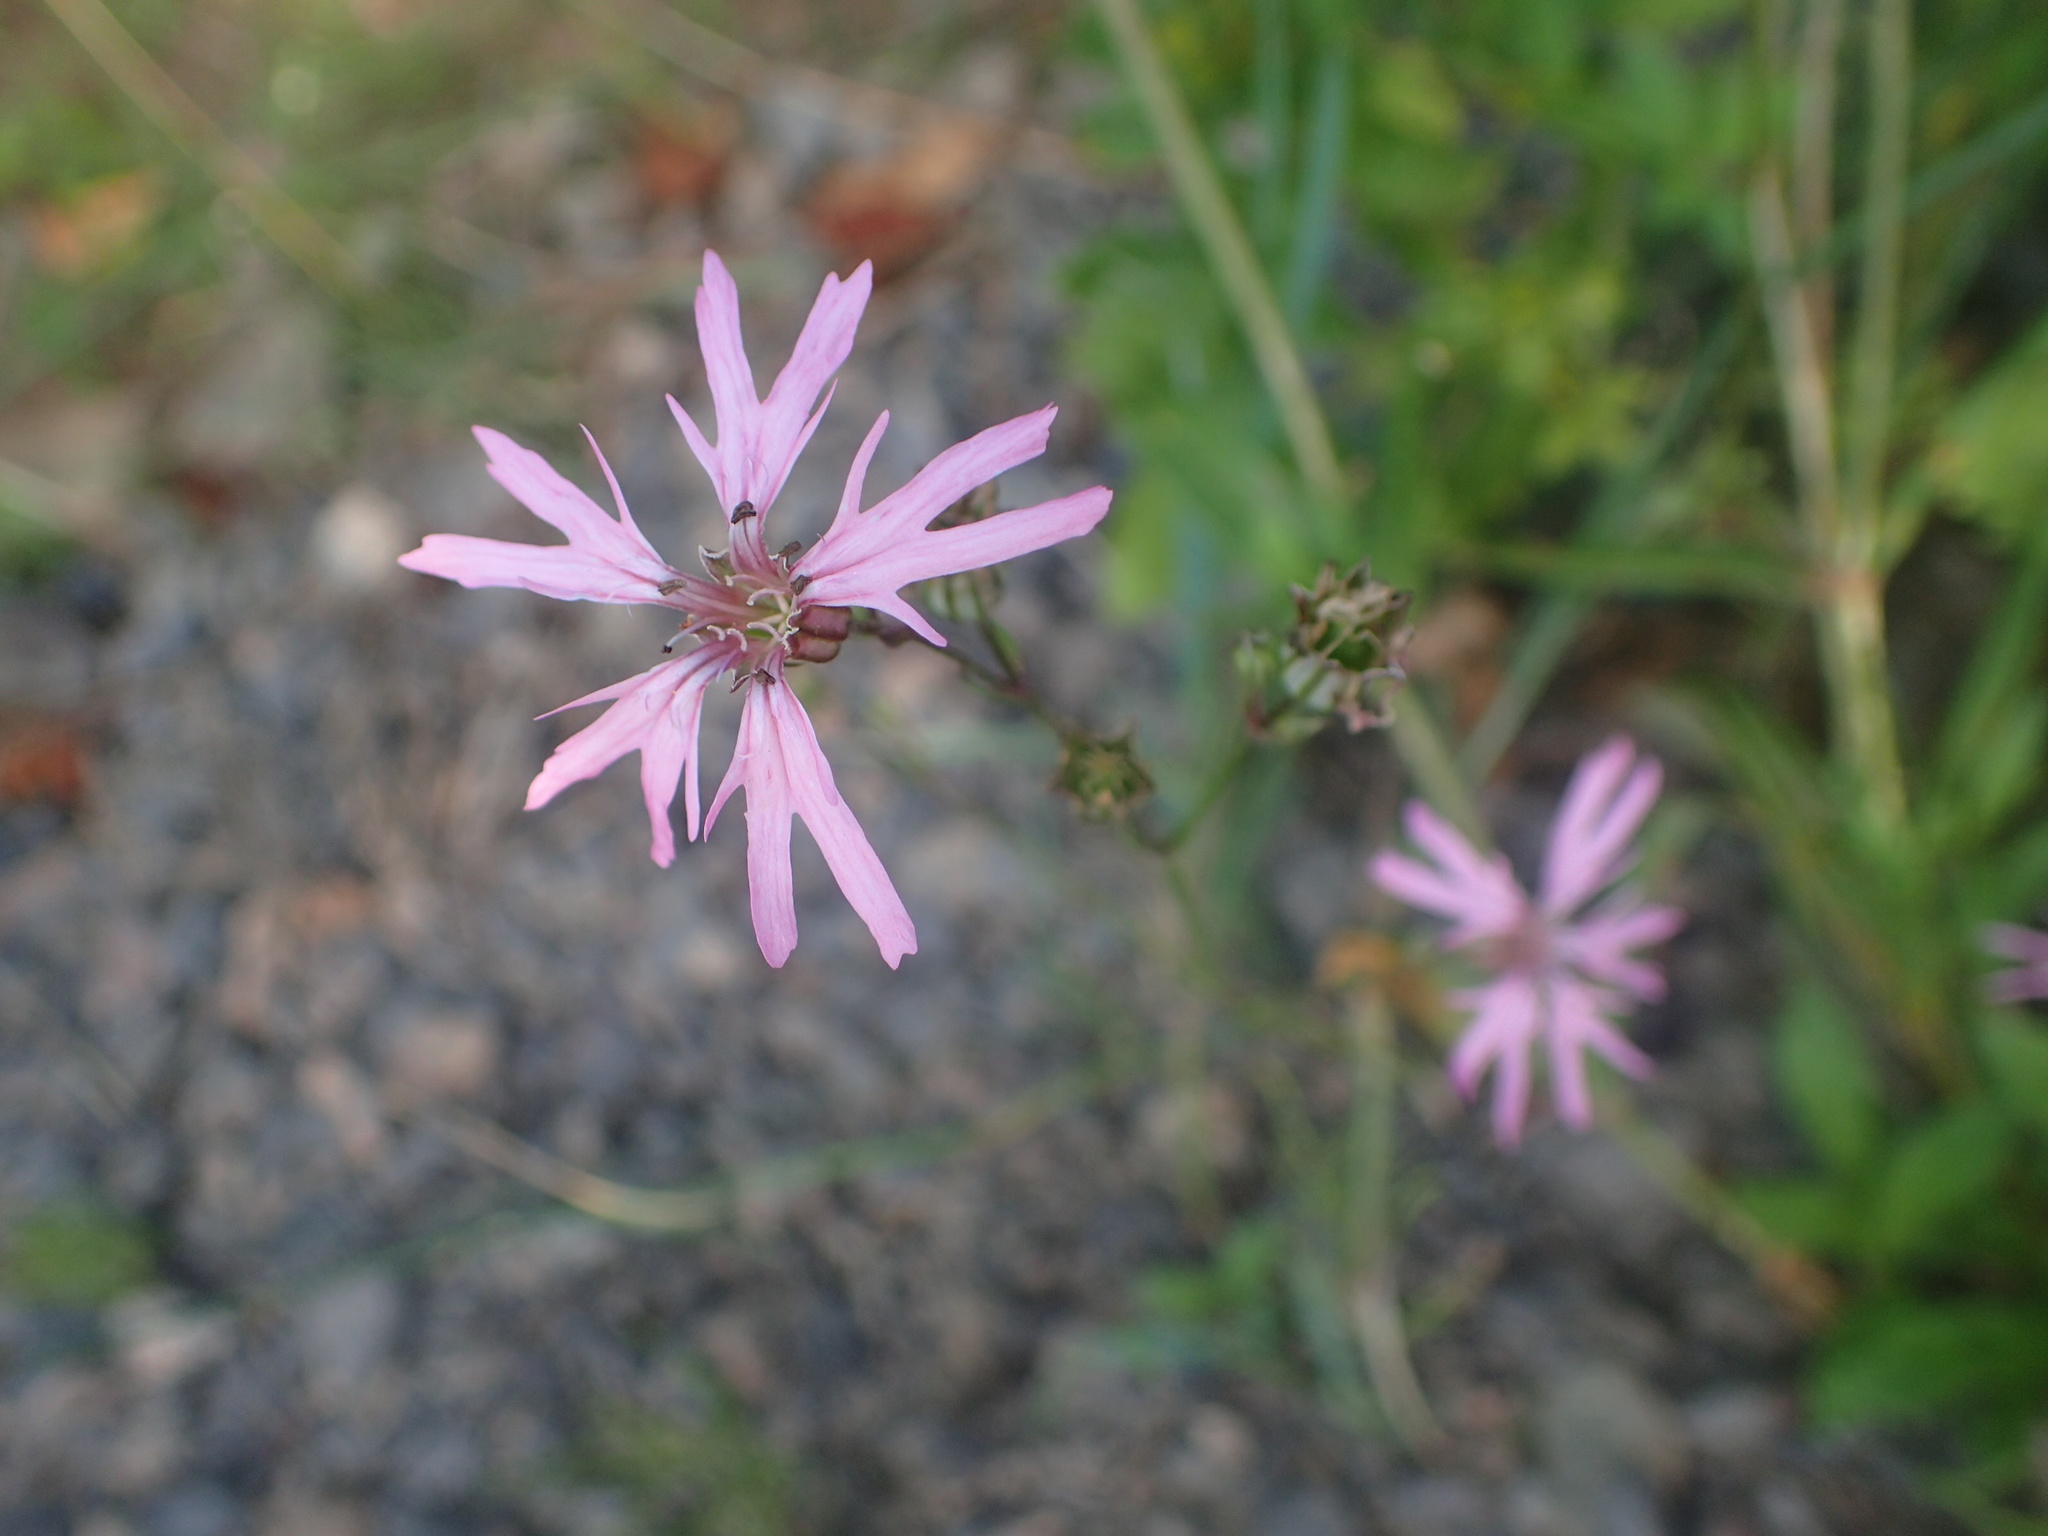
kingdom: Plantae
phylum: Tracheophyta
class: Magnoliopsida
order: Caryophyllales
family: Caryophyllaceae
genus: Silene
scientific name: Silene flos-cuculi
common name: Ragged-robin
